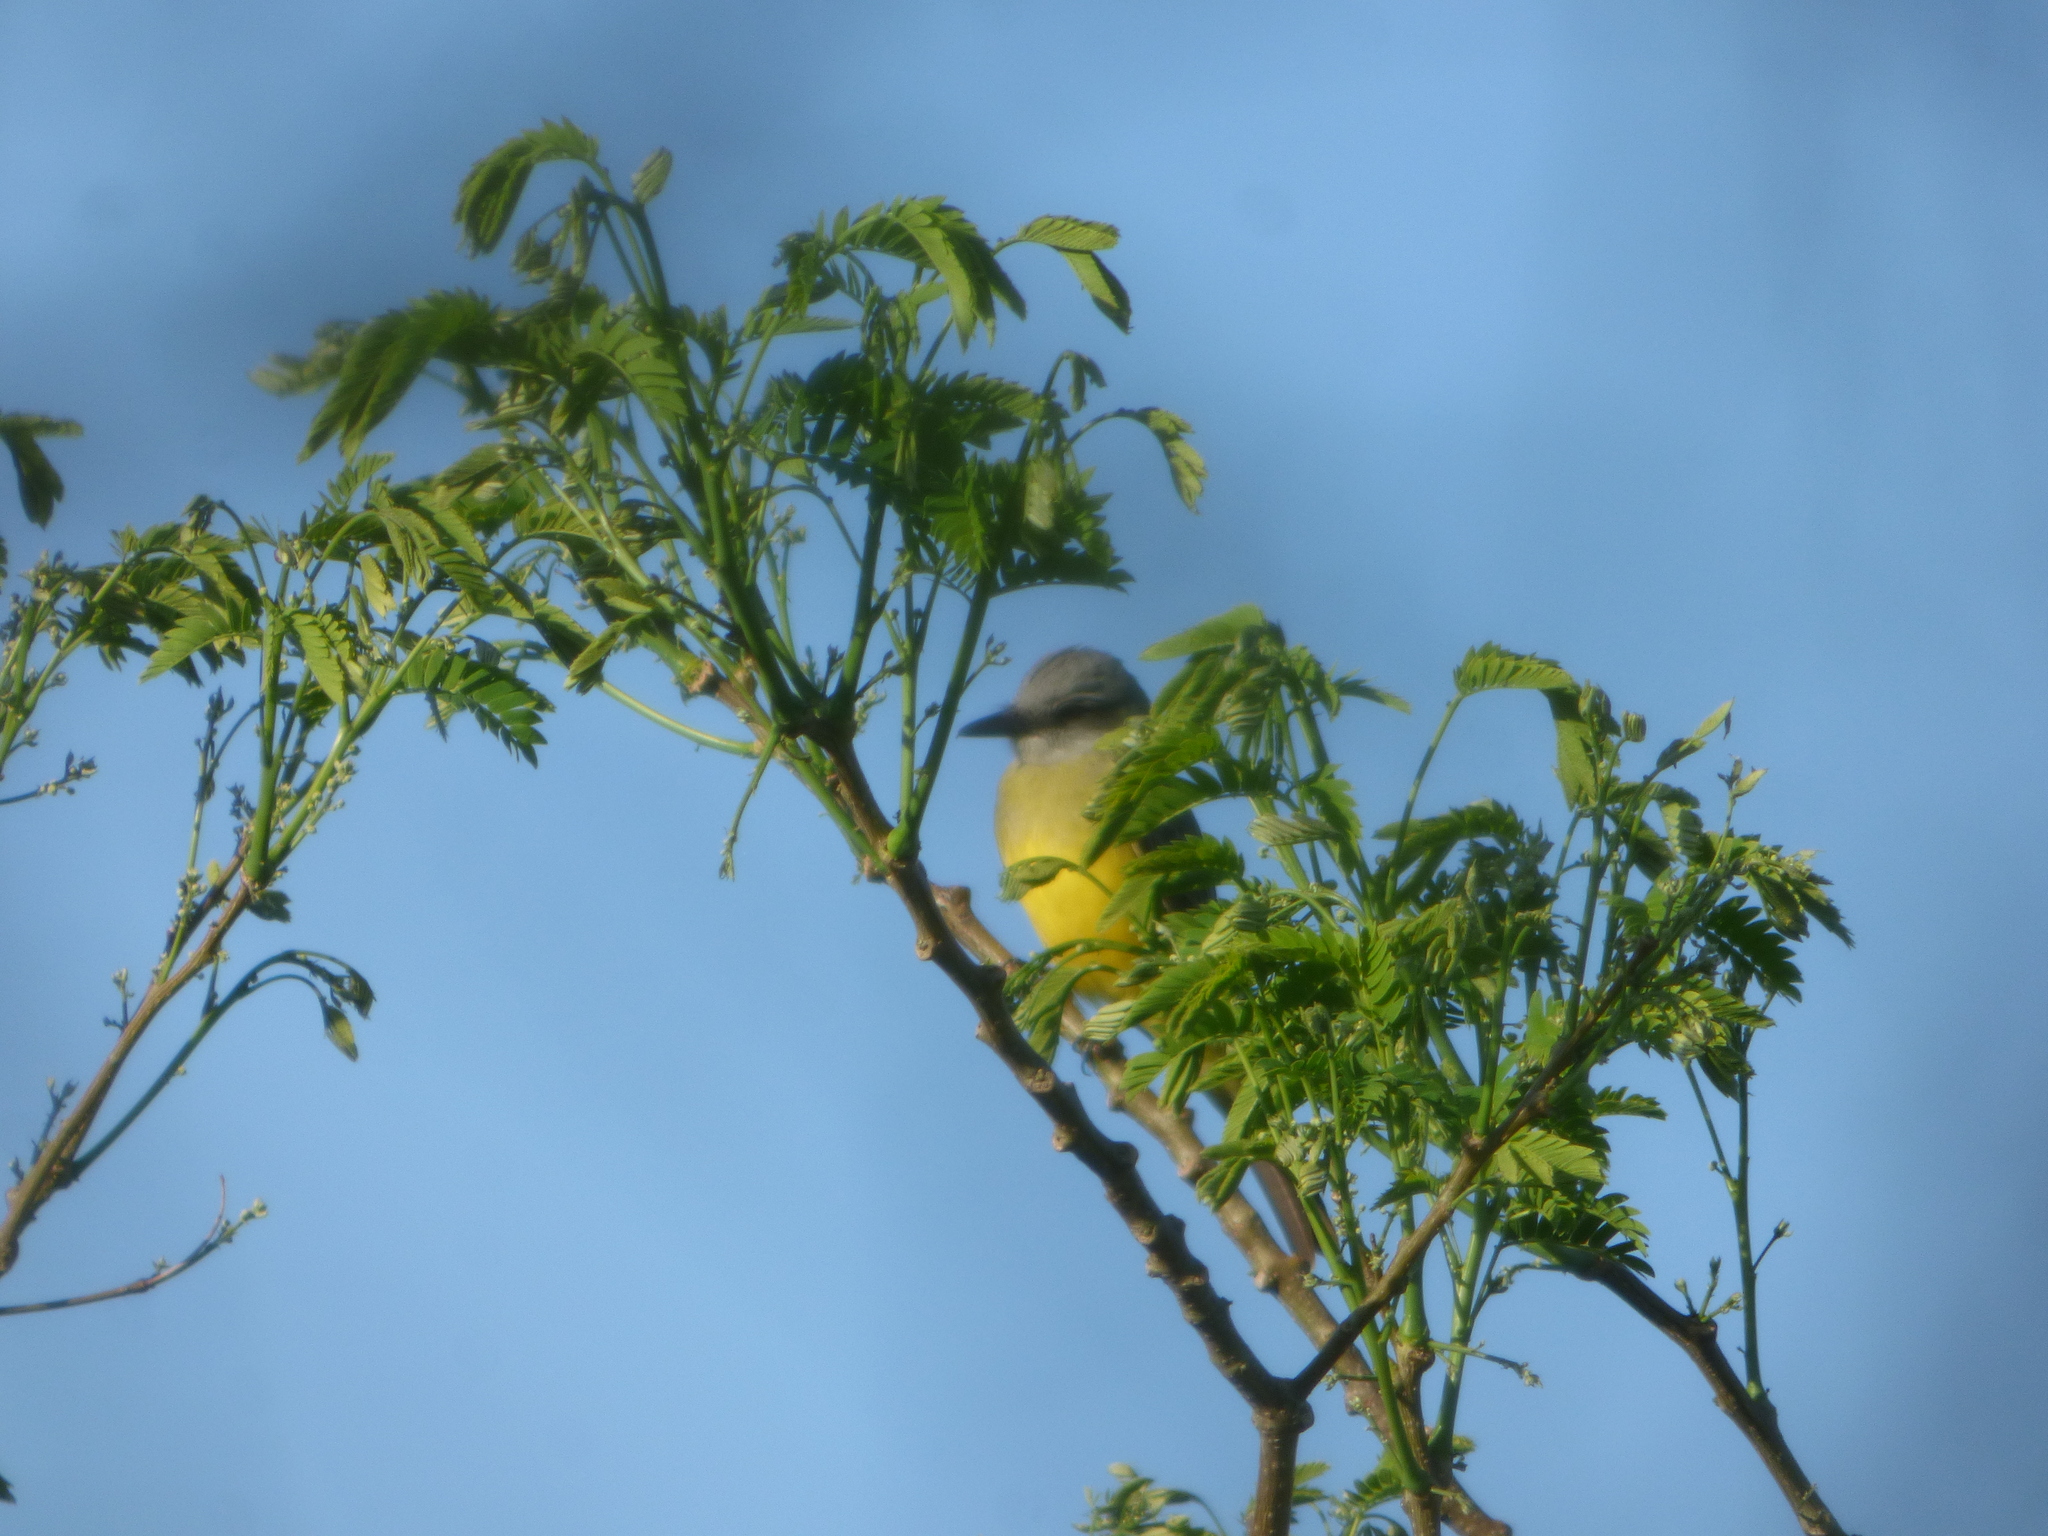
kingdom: Animalia
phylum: Chordata
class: Aves
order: Passeriformes
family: Tyrannidae
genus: Tyrannus
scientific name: Tyrannus melancholicus
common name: Tropical kingbird
